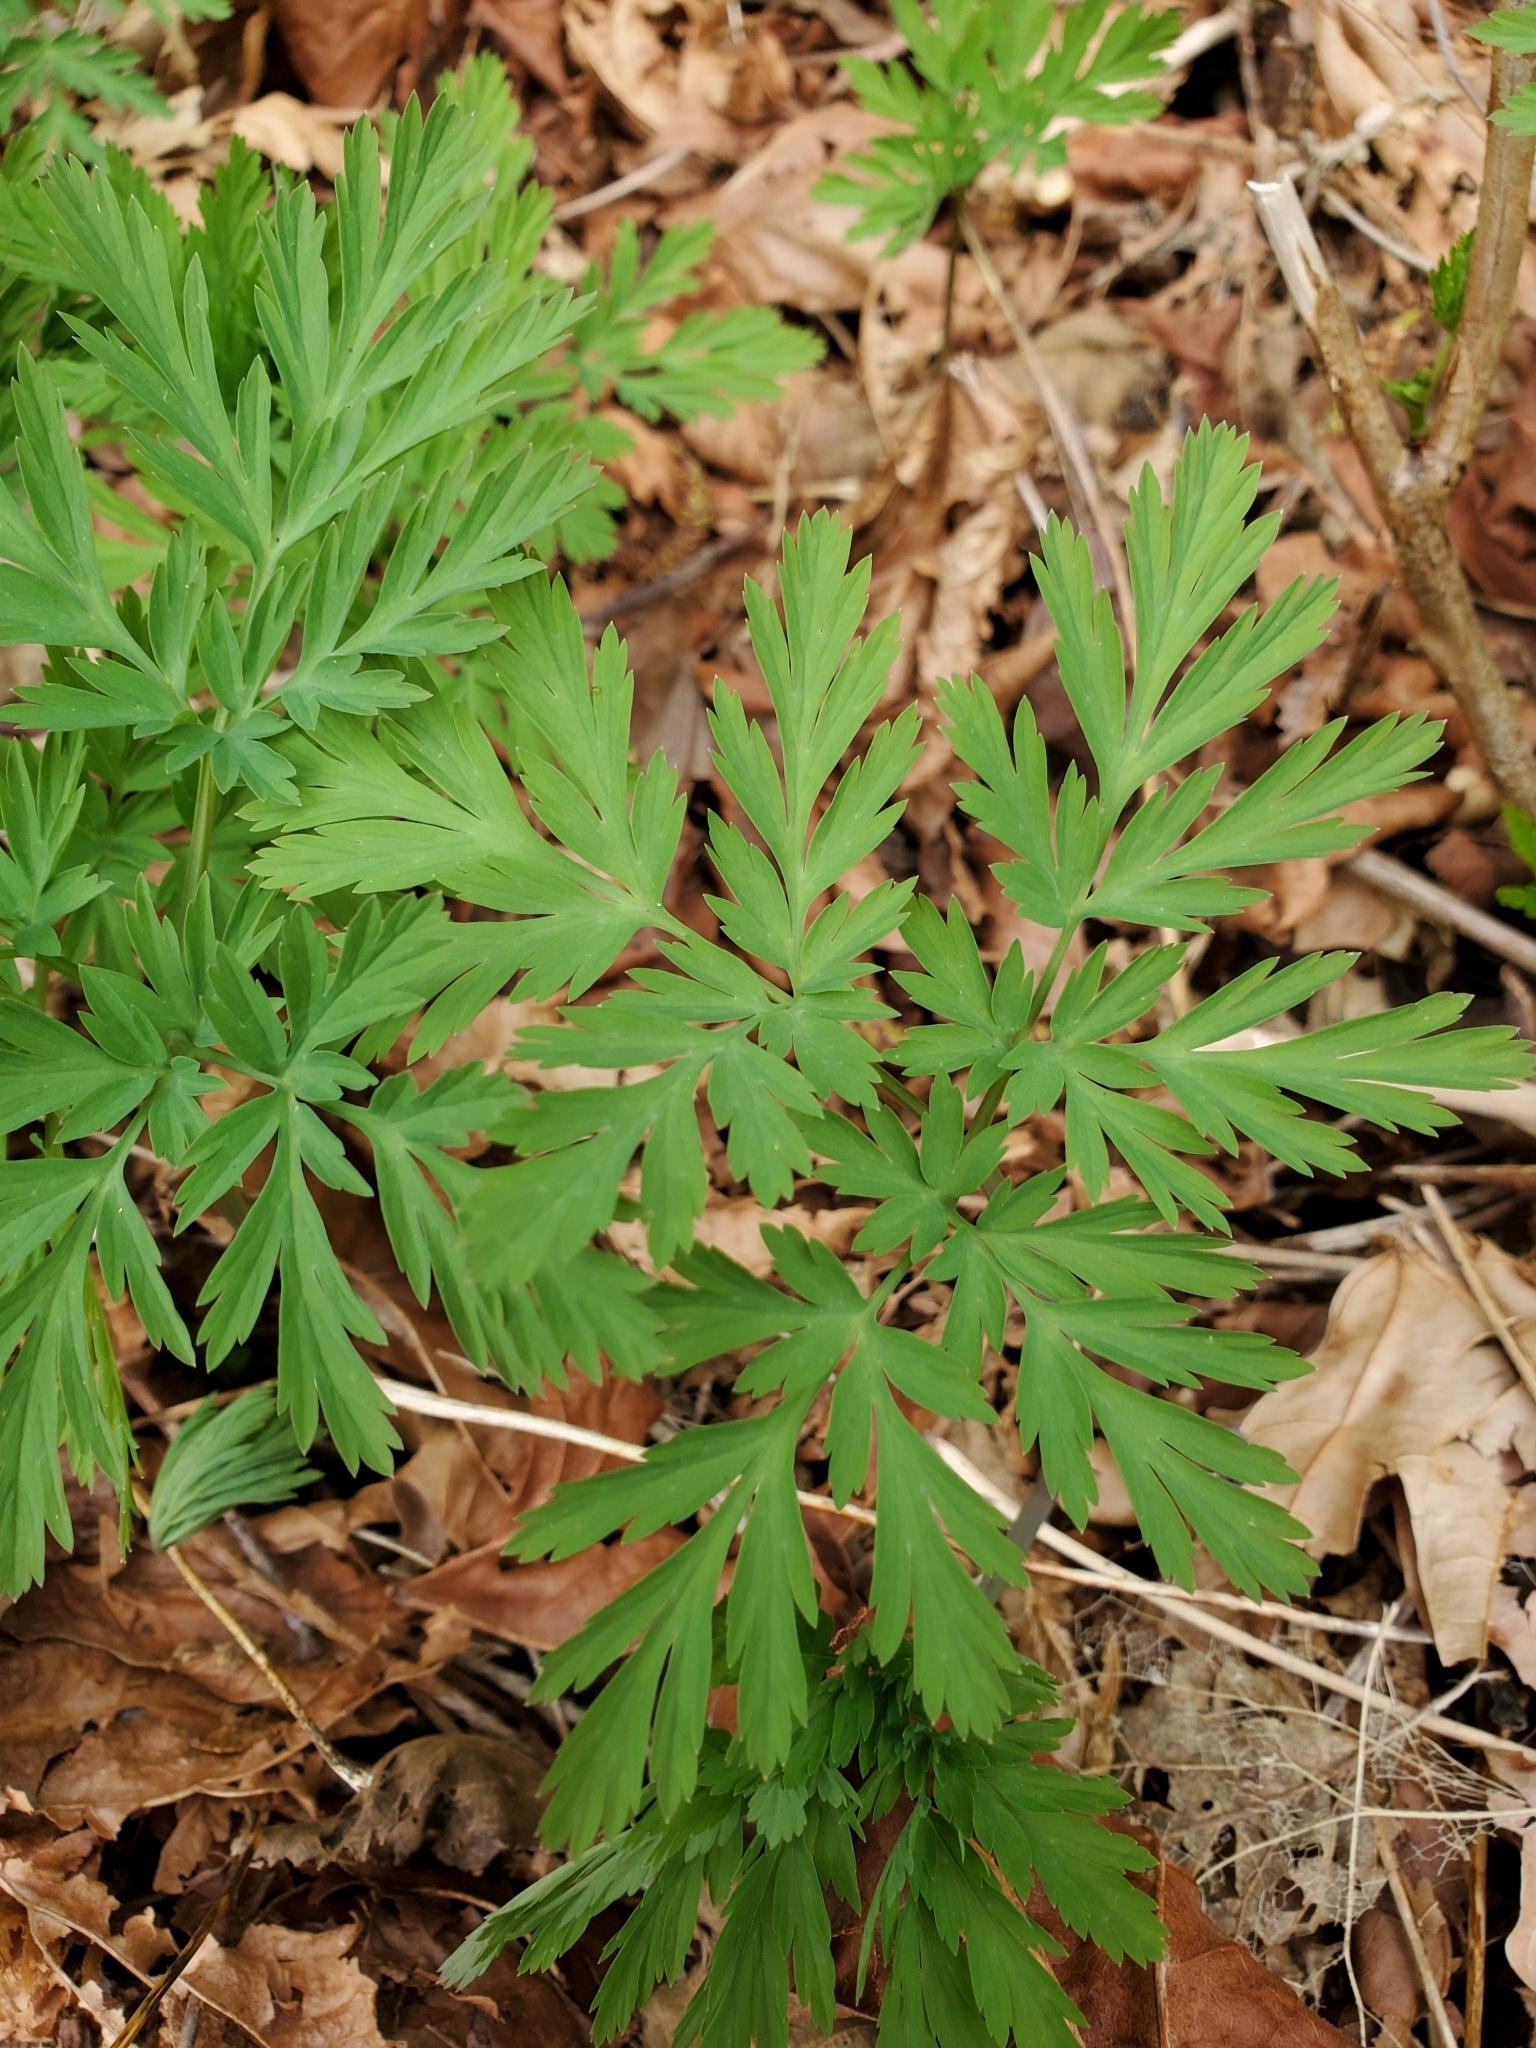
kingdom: Plantae
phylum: Tracheophyta
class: Magnoliopsida
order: Ranunculales
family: Papaveraceae
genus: Dicentra
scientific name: Dicentra formosa
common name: Bleeding-heart
